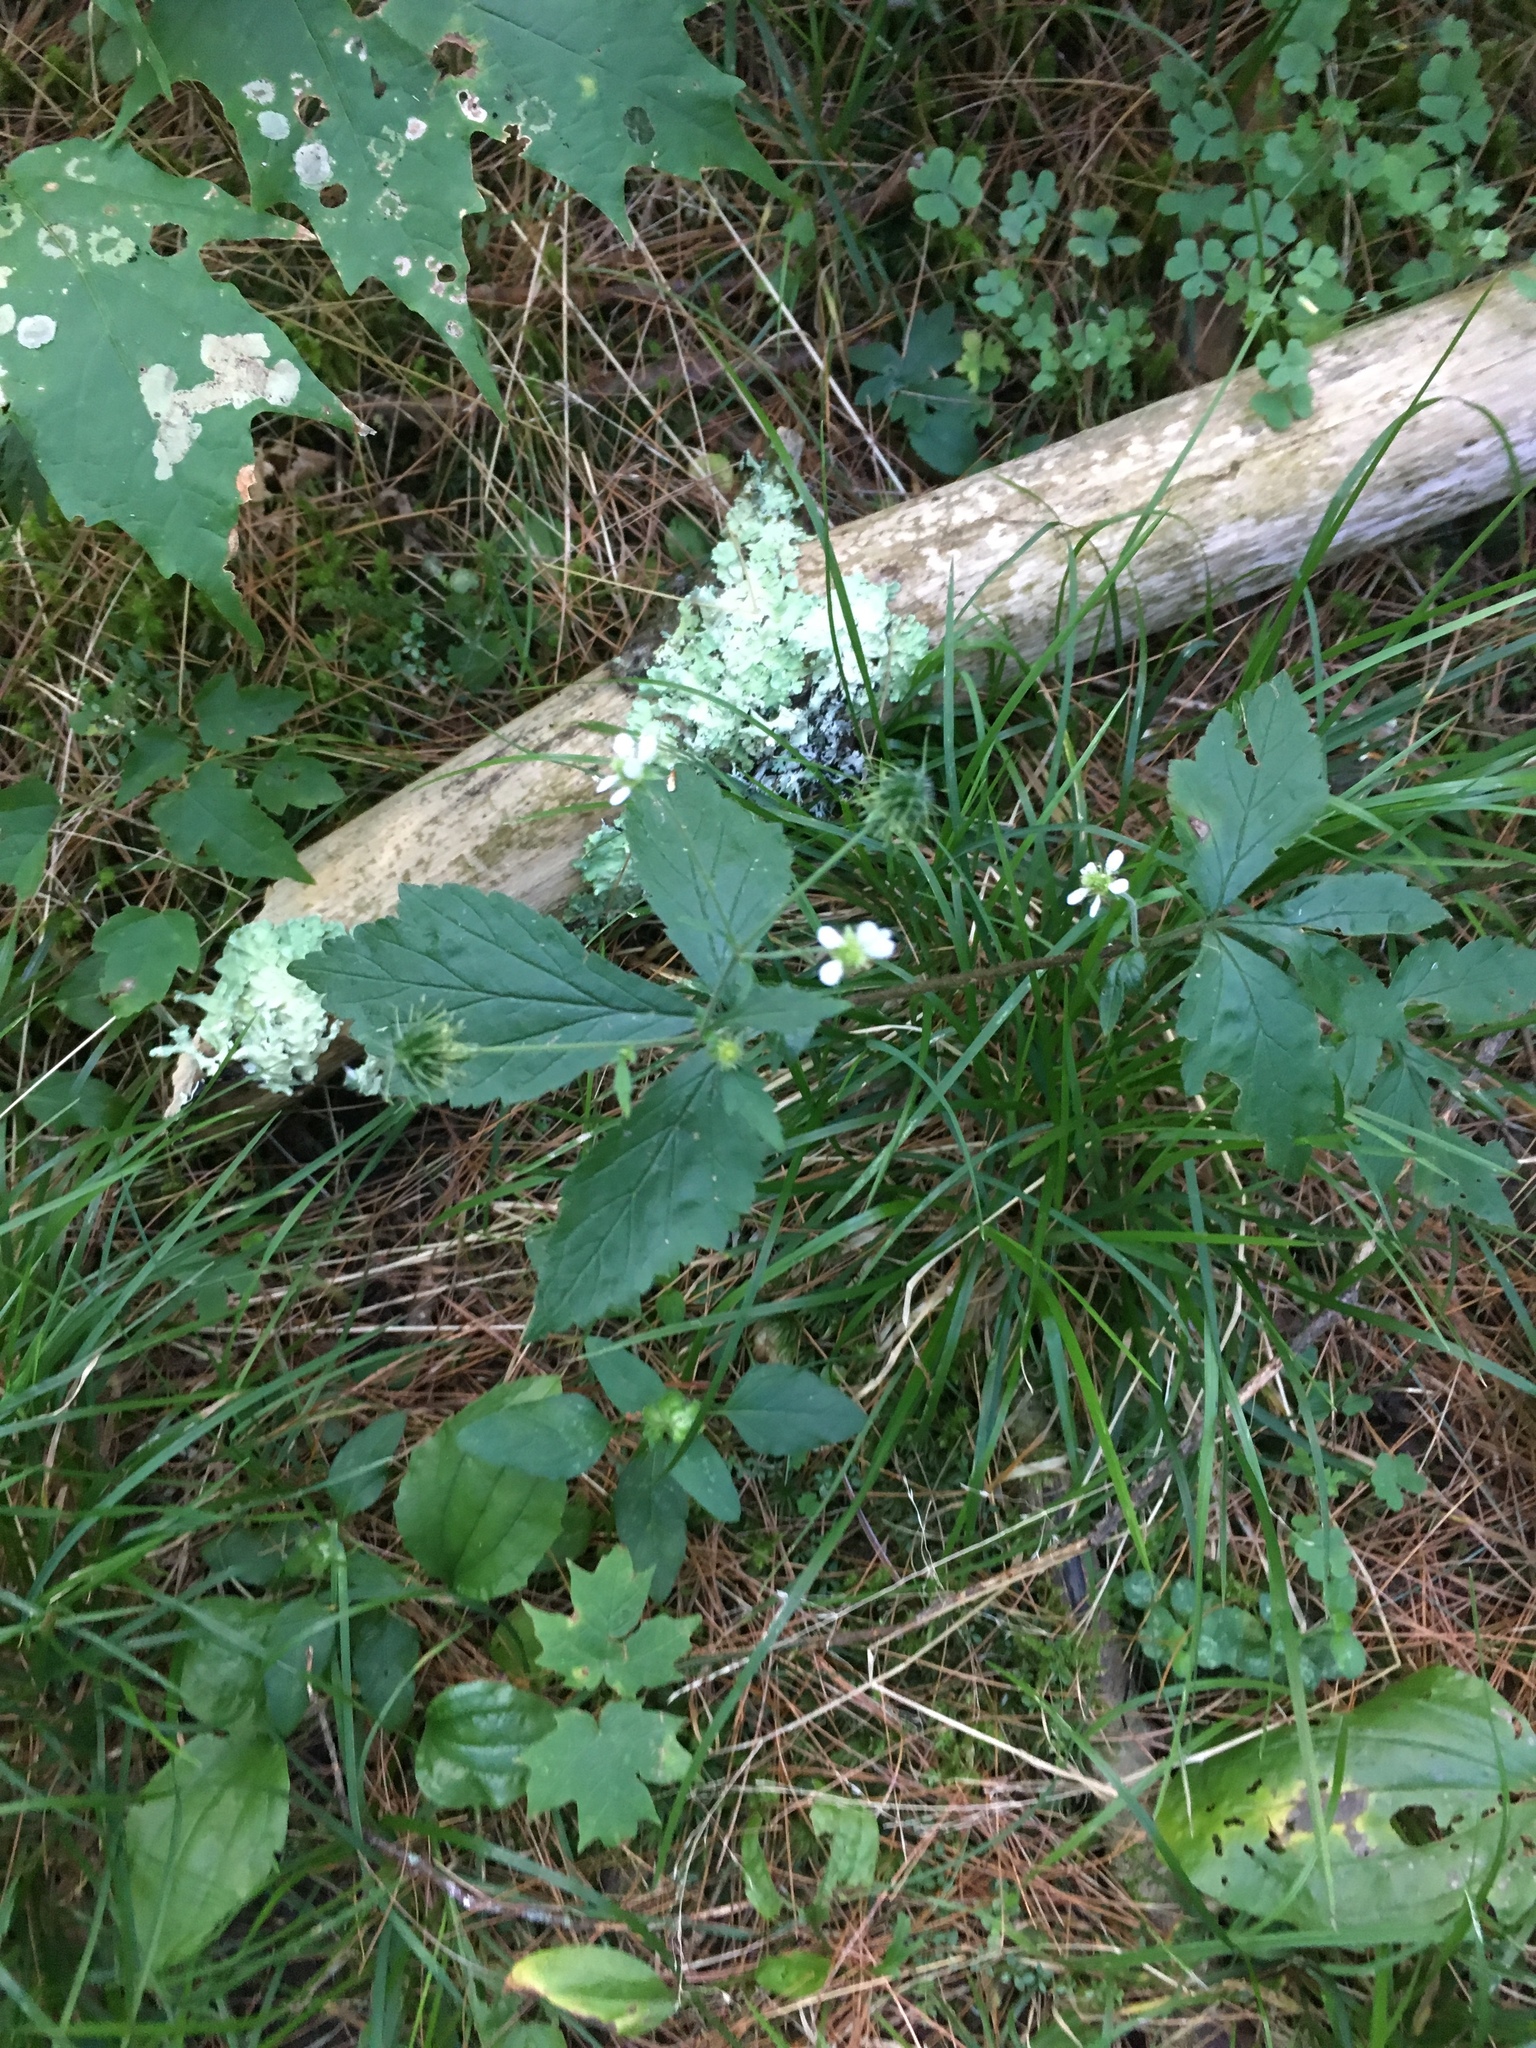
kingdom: Plantae
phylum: Tracheophyta
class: Magnoliopsida
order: Rosales
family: Rosaceae
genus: Geum
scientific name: Geum canadense
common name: White avens
